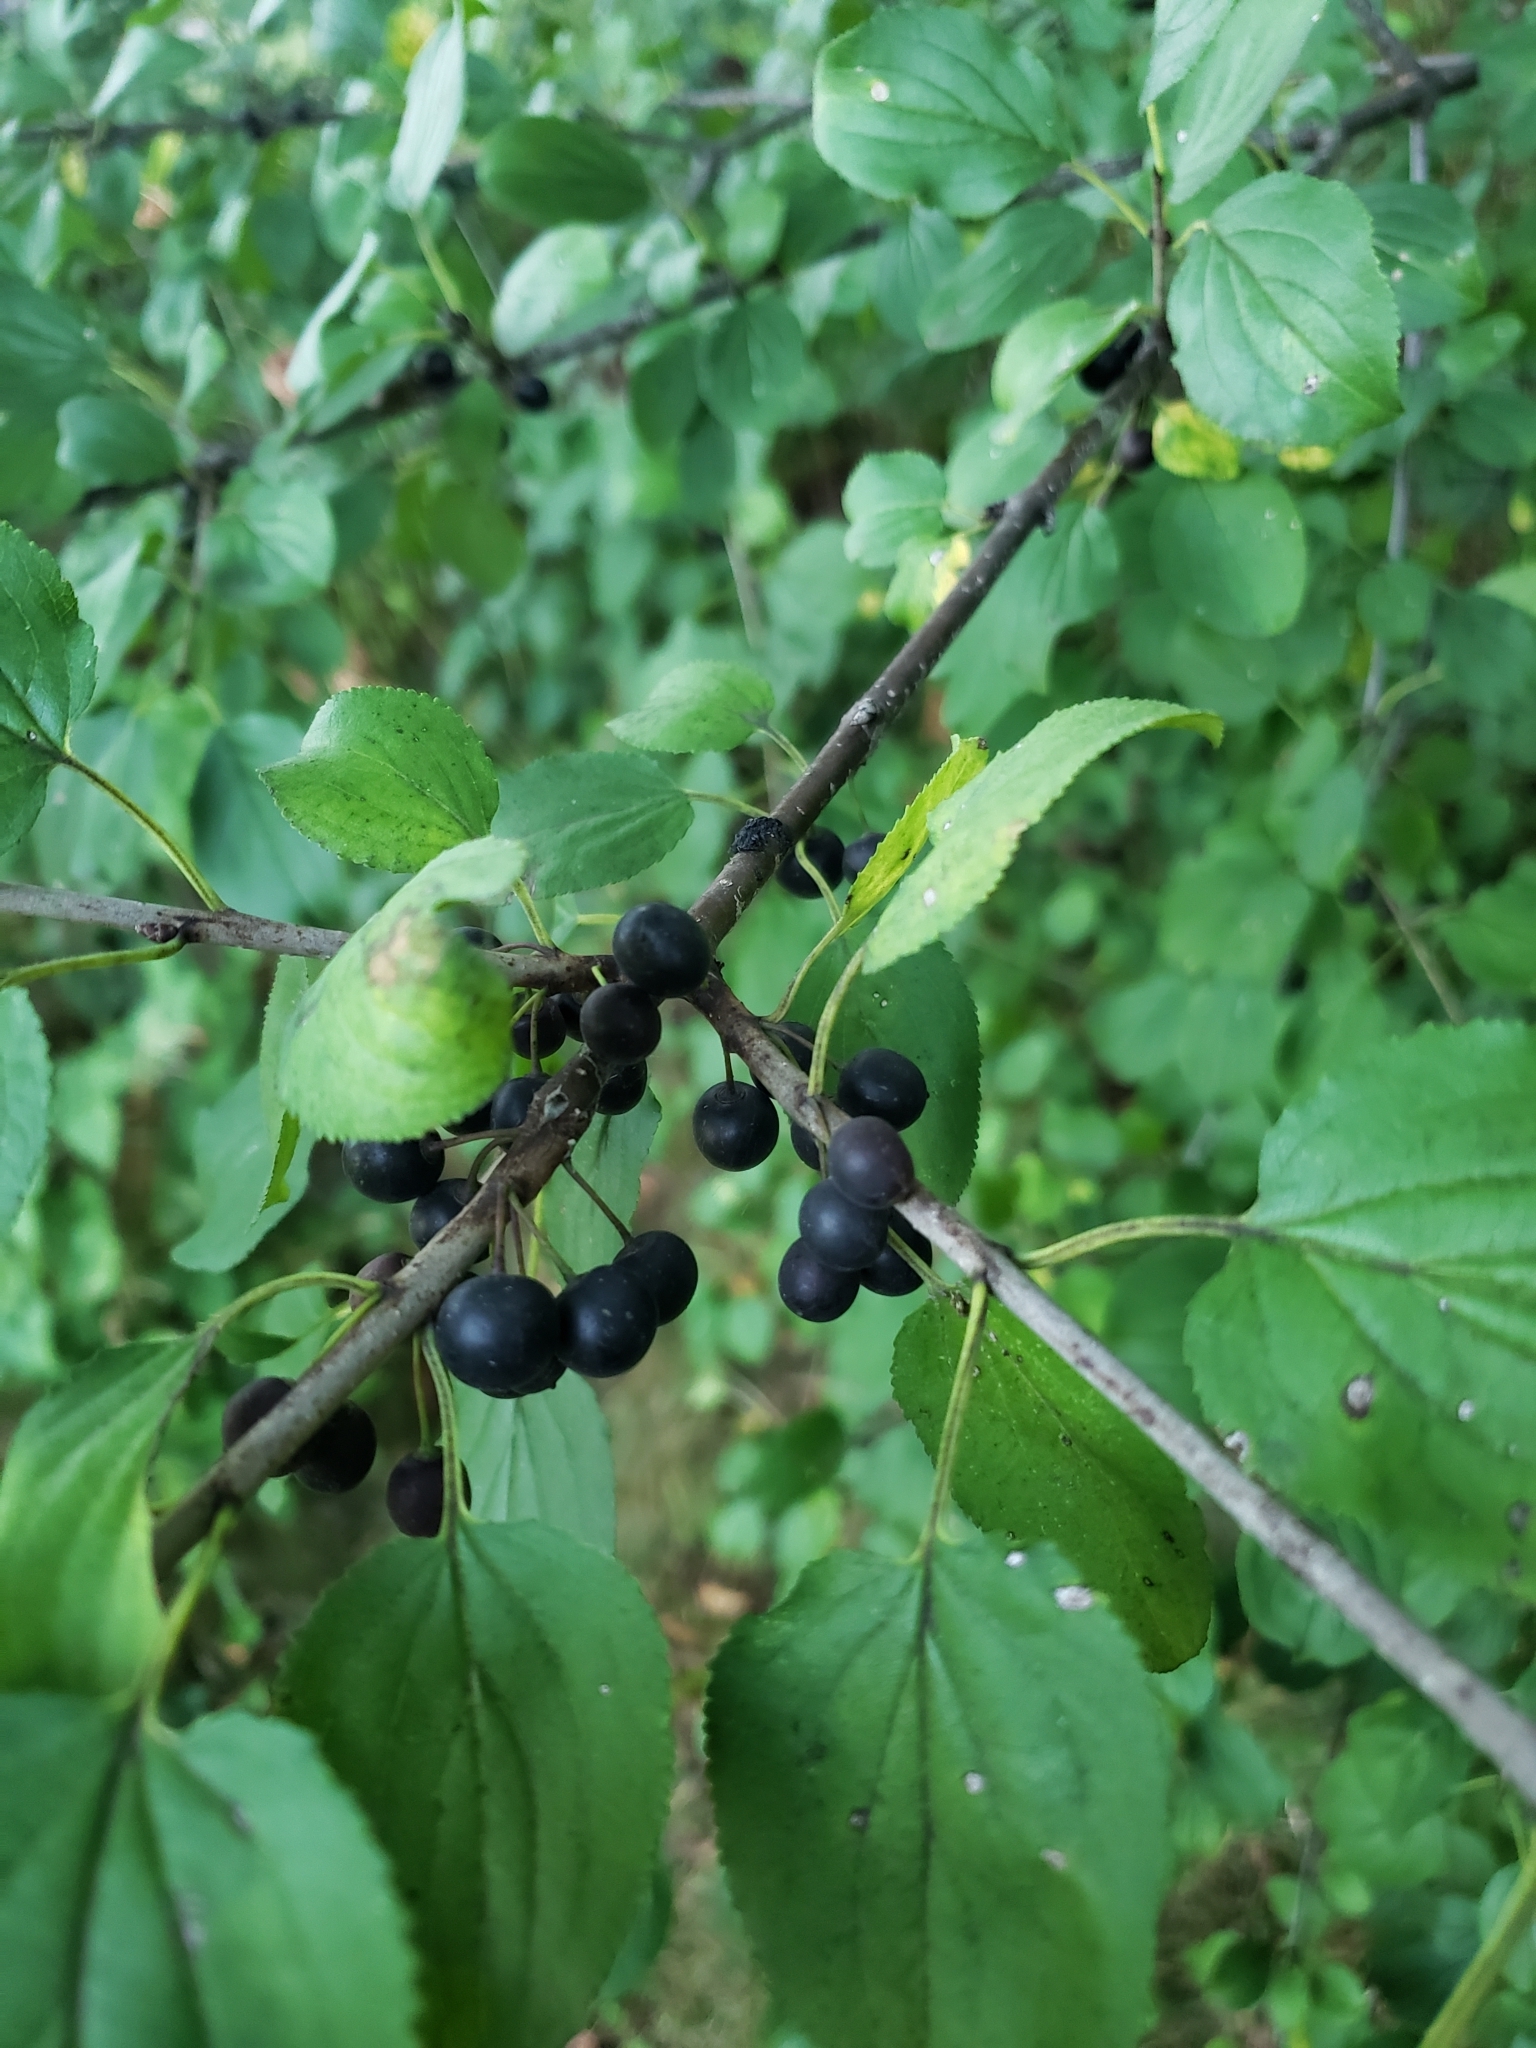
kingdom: Plantae
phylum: Tracheophyta
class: Magnoliopsida
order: Rosales
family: Rhamnaceae
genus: Rhamnus
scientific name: Rhamnus cathartica
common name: Common buckthorn
